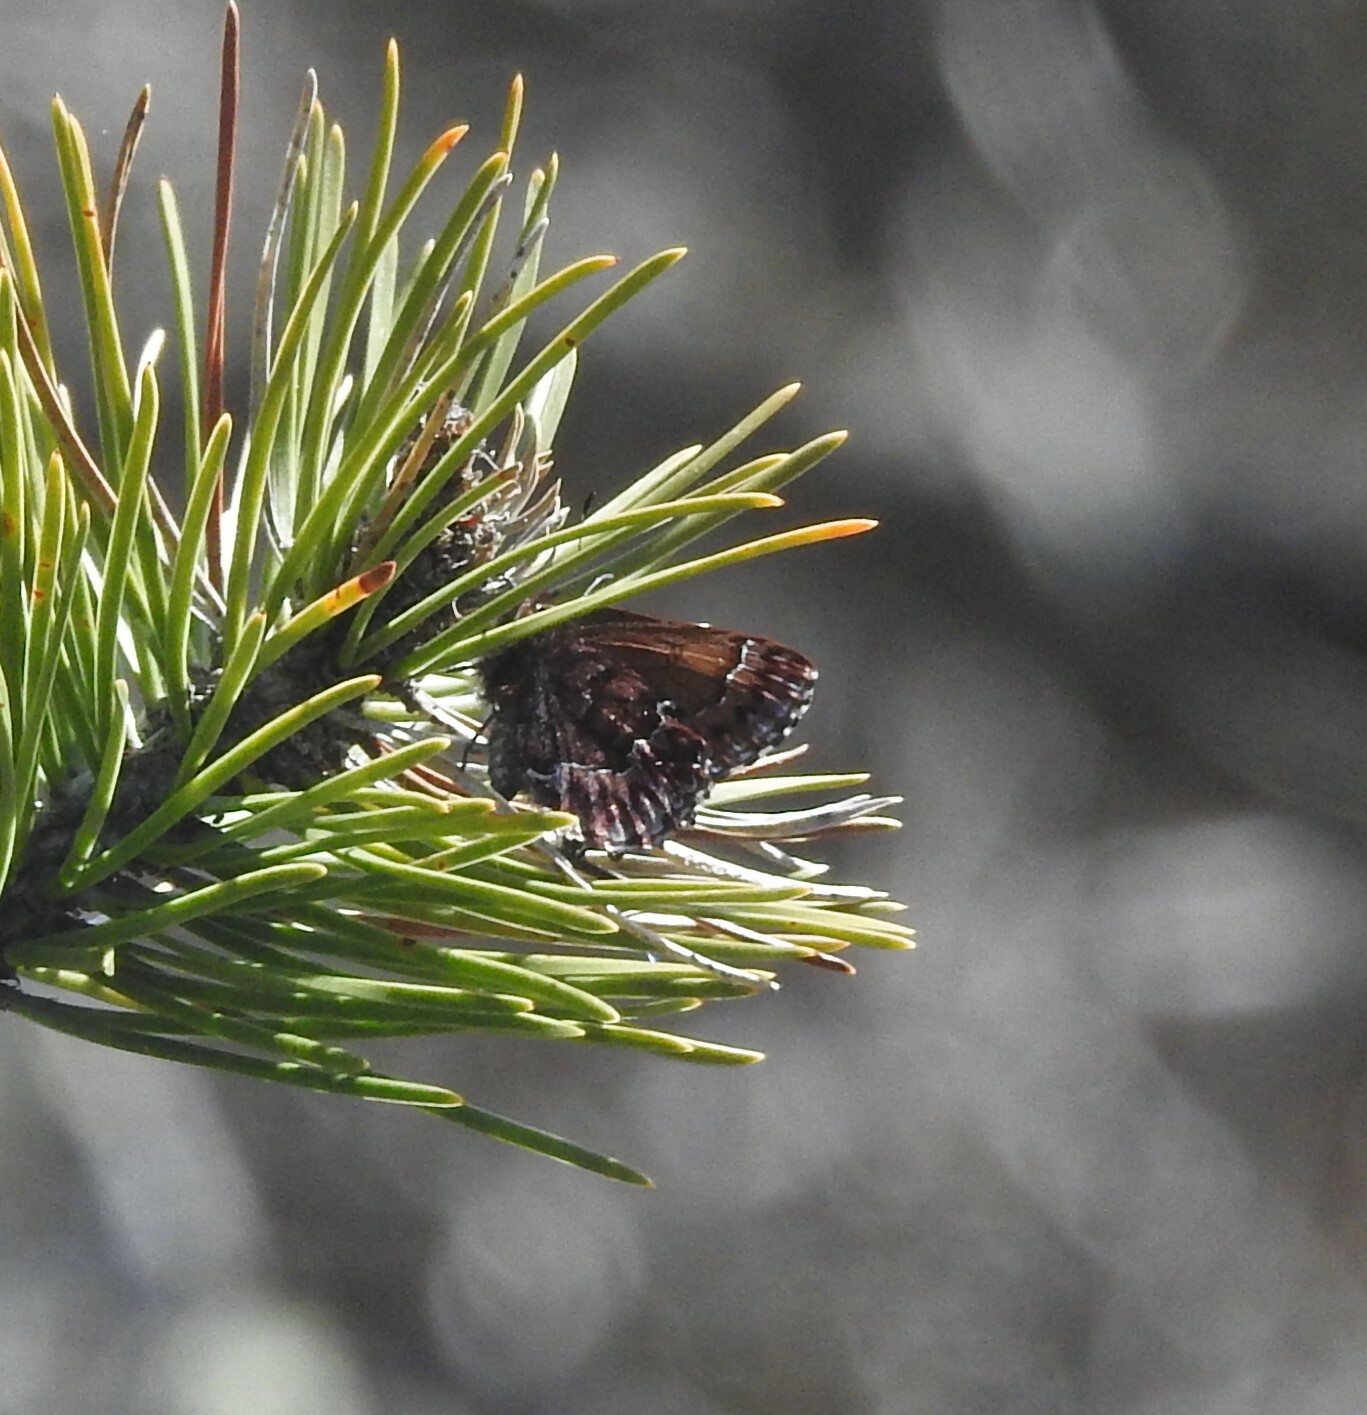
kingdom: Animalia
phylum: Arthropoda
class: Insecta
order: Lepidoptera
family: Lycaenidae
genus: Incisalia
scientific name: Incisalia eryphon
